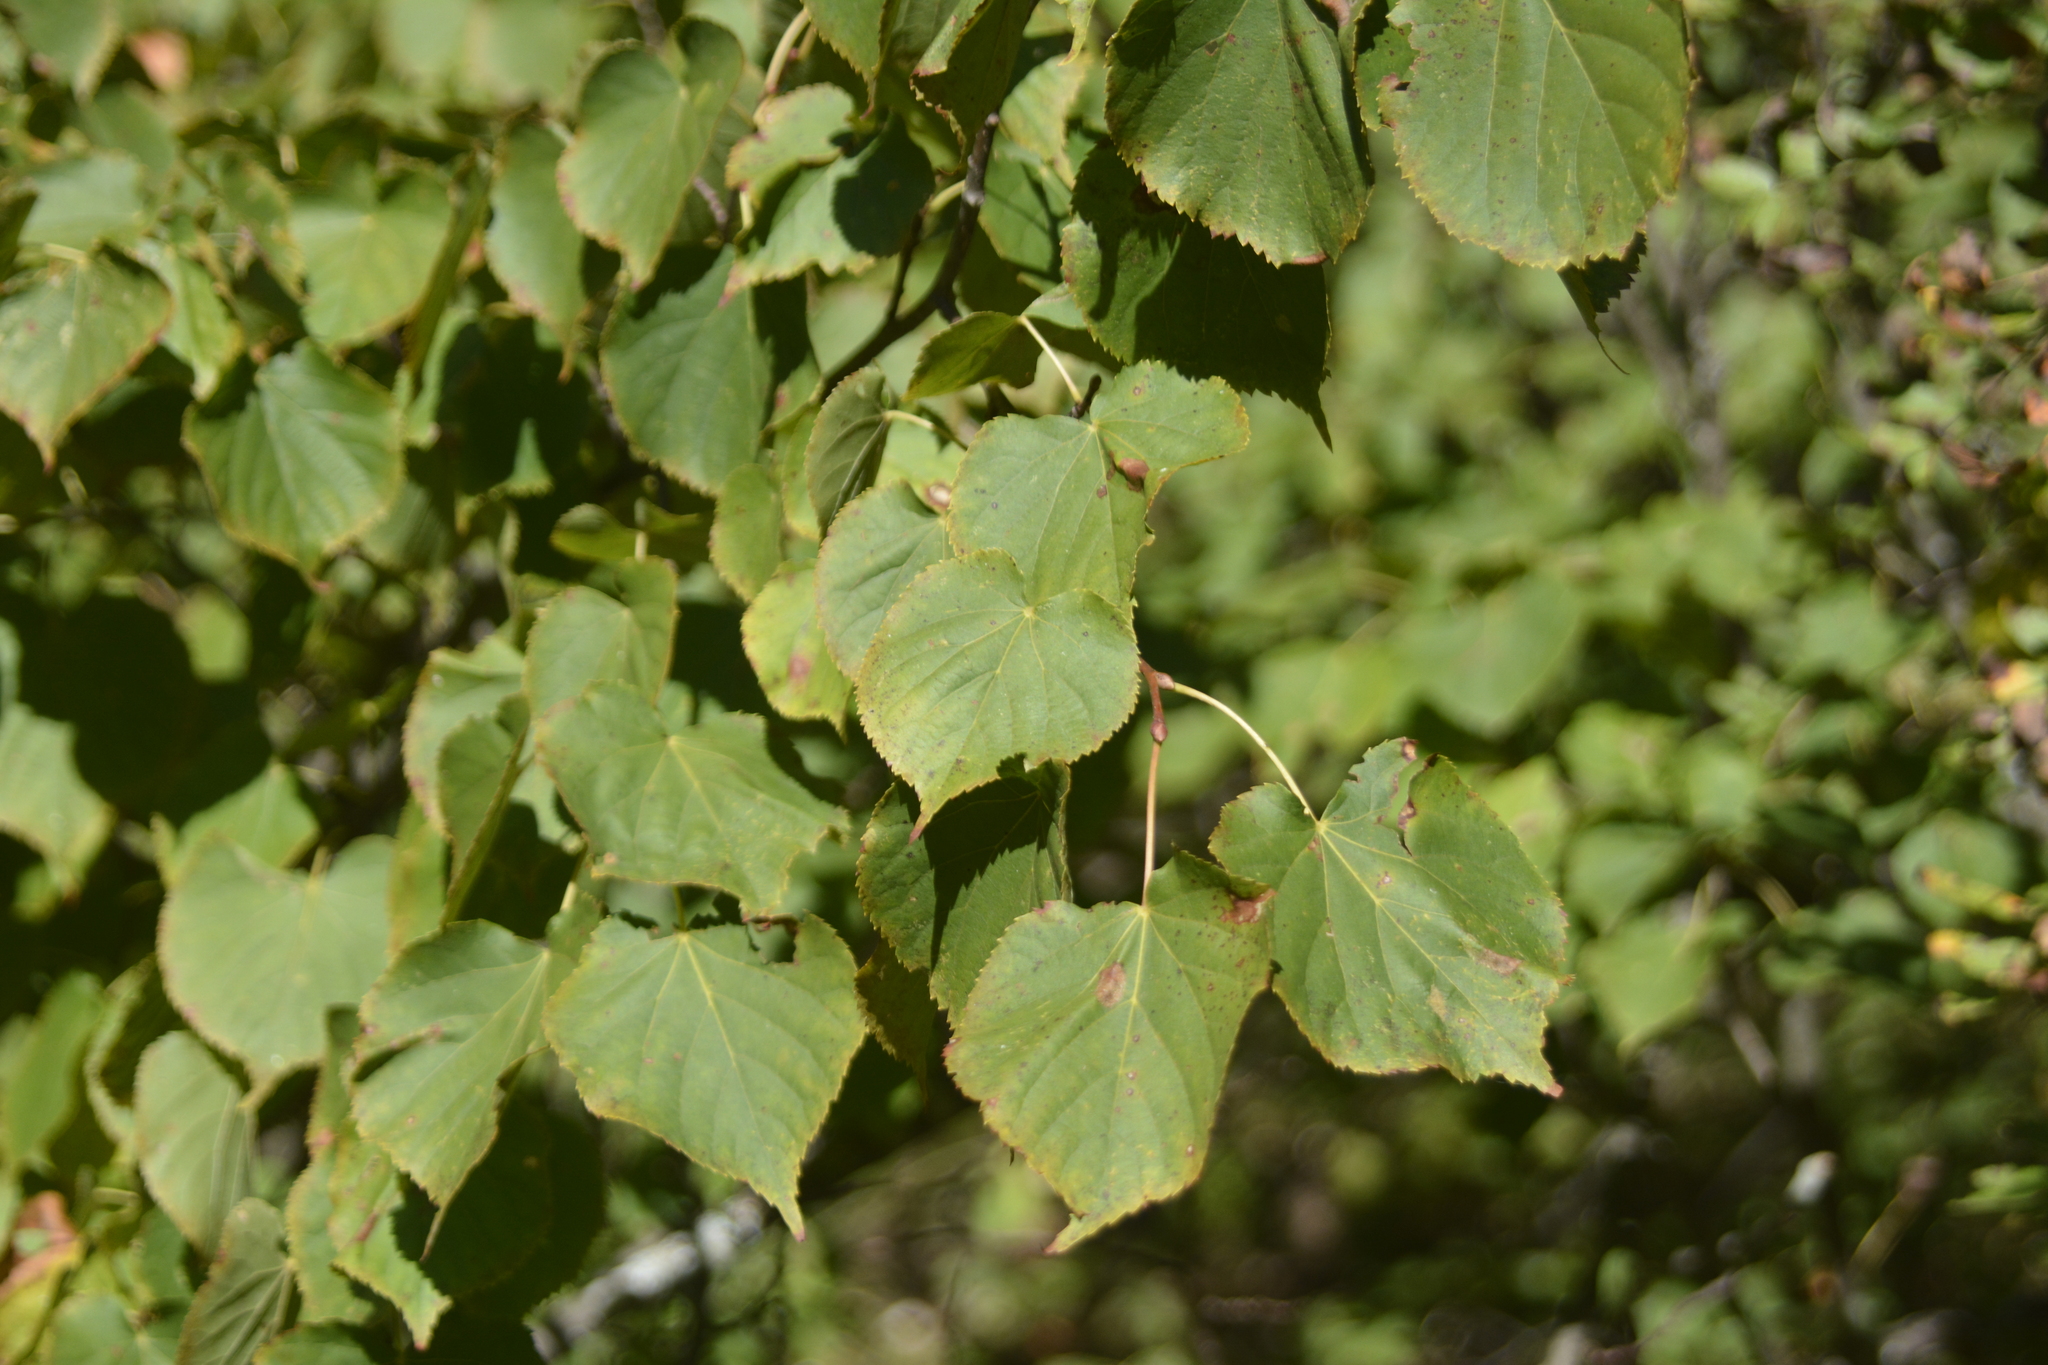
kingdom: Plantae
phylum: Tracheophyta
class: Magnoliopsida
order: Malvales
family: Malvaceae
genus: Tilia
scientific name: Tilia cordata
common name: Small-leaved lime
